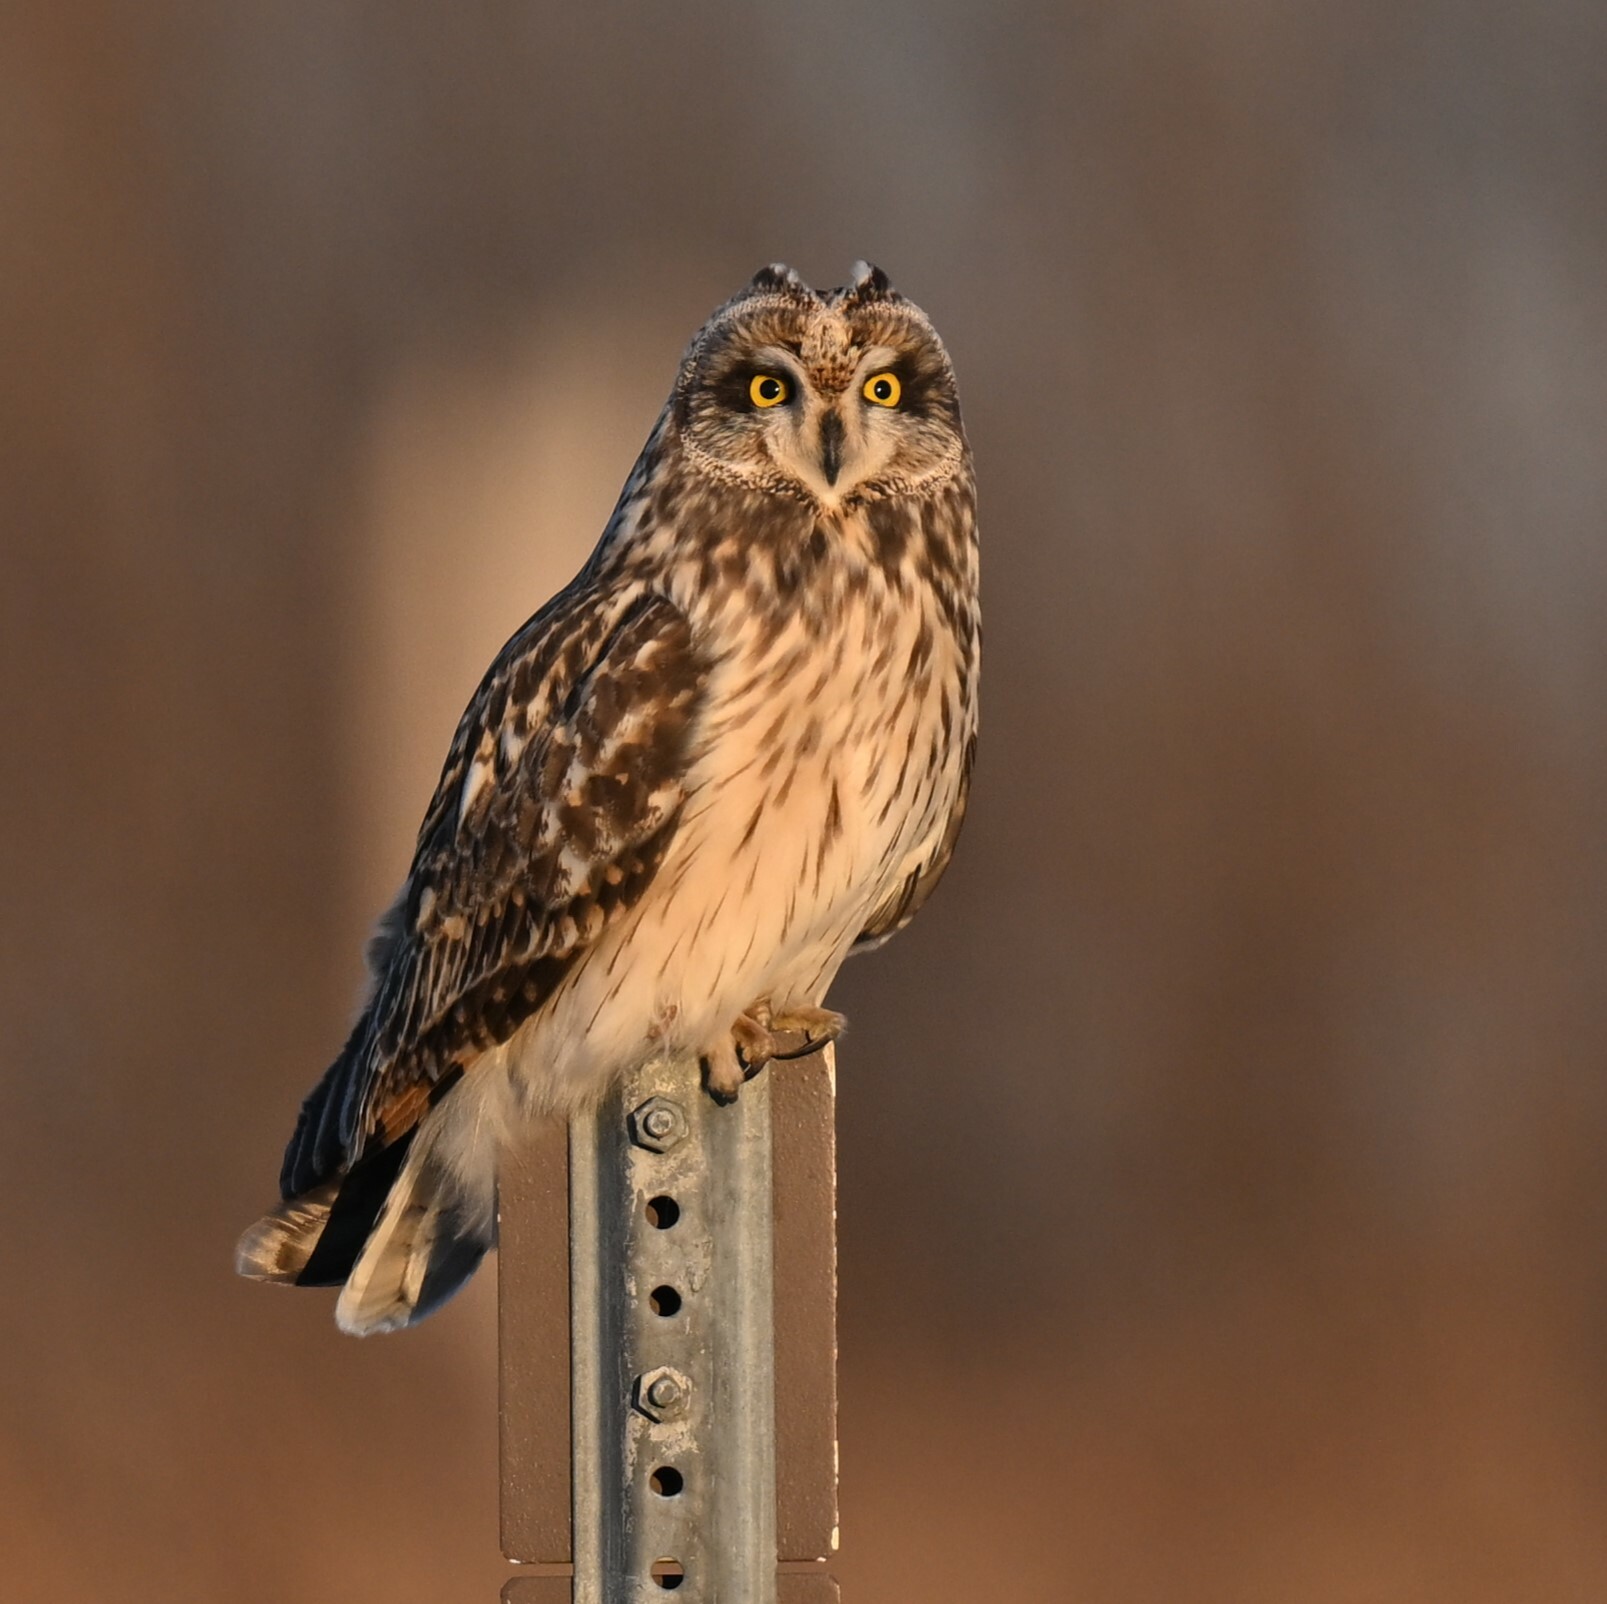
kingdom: Animalia
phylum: Chordata
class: Aves
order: Strigiformes
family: Strigidae
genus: Asio
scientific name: Asio flammeus
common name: Short-eared owl
